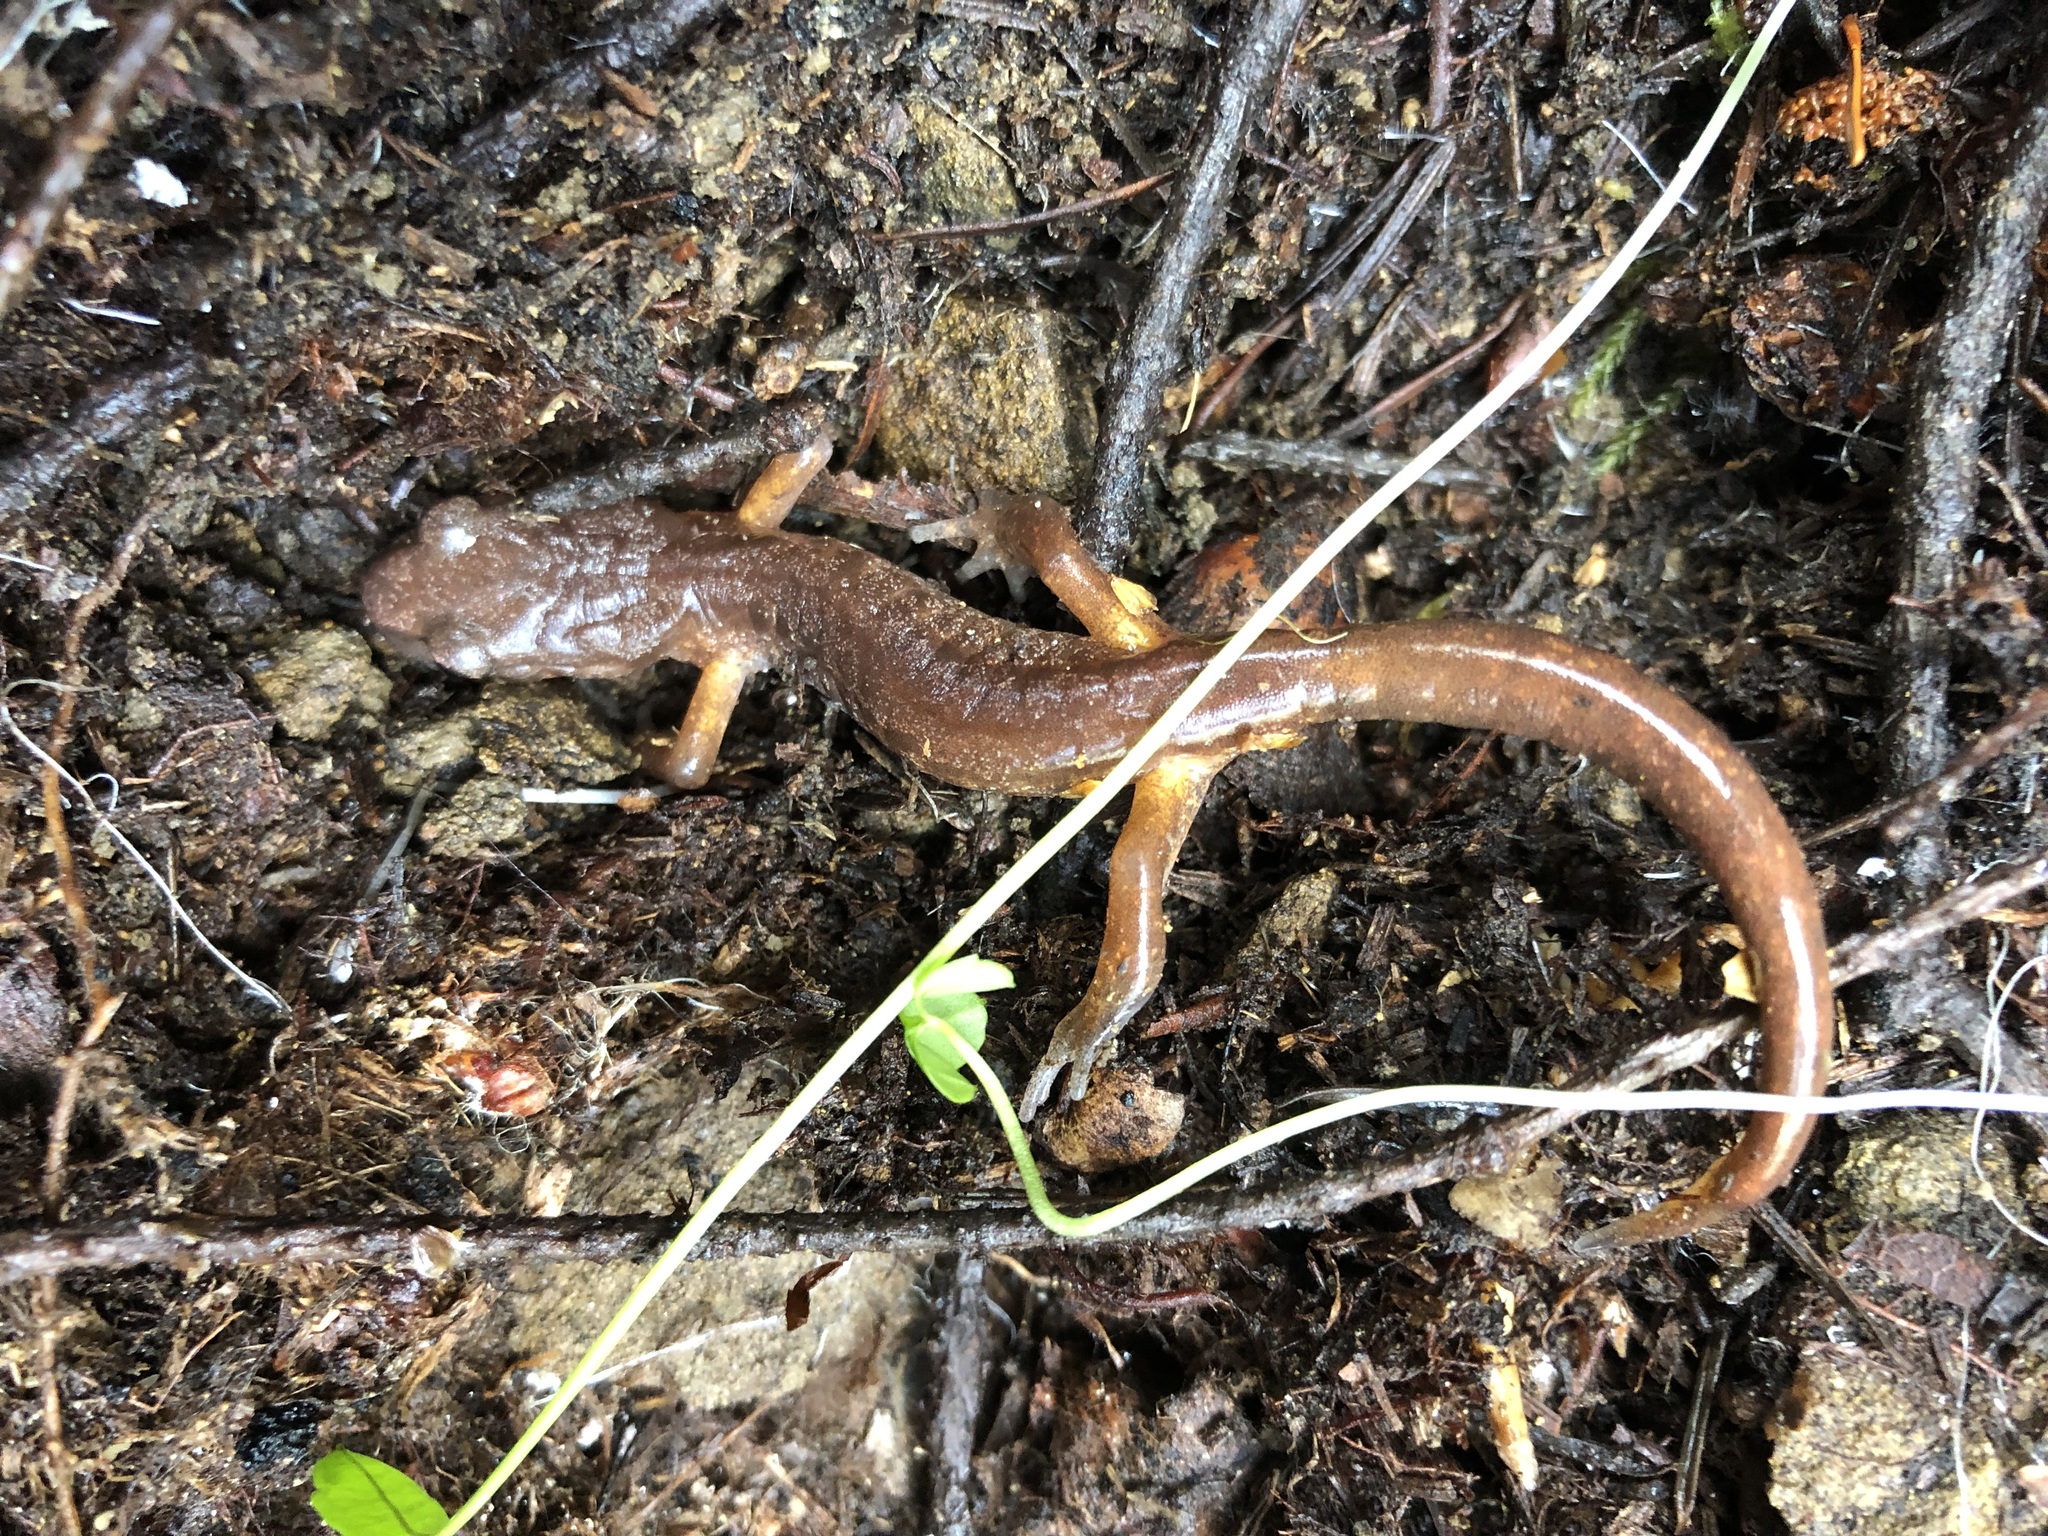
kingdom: Animalia
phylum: Chordata
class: Amphibia
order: Caudata
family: Plethodontidae
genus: Ensatina
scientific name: Ensatina eschscholtzii
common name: Ensatina
